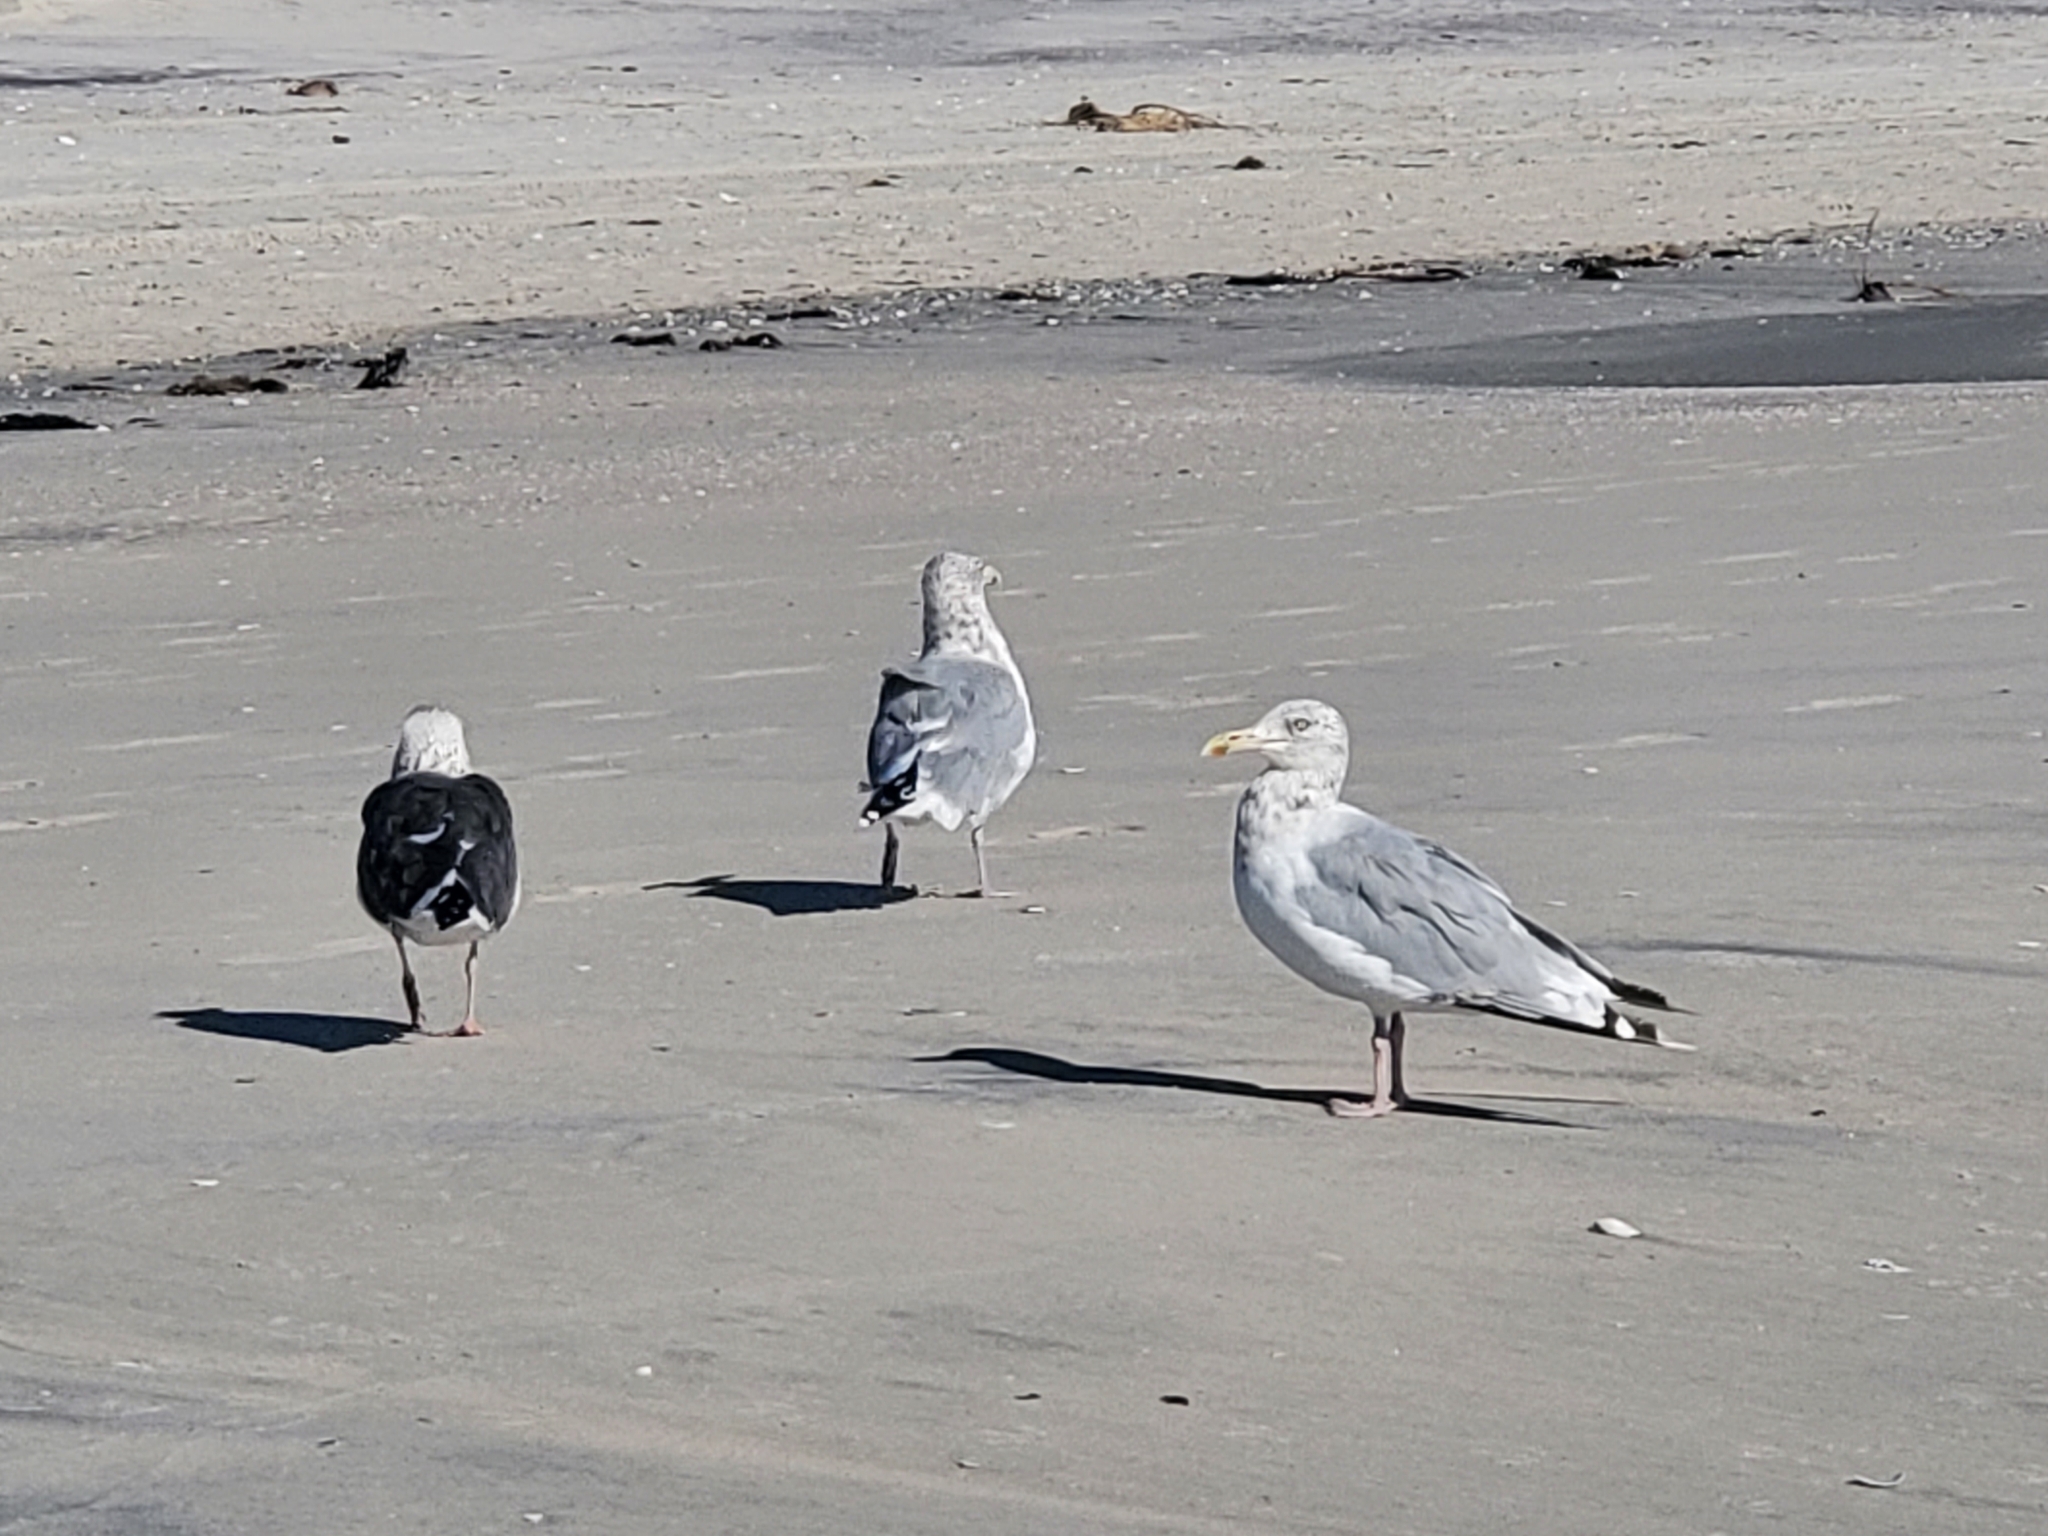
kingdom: Animalia
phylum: Chordata
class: Aves
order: Charadriiformes
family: Laridae
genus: Larus
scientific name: Larus argentatus
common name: Herring gull
